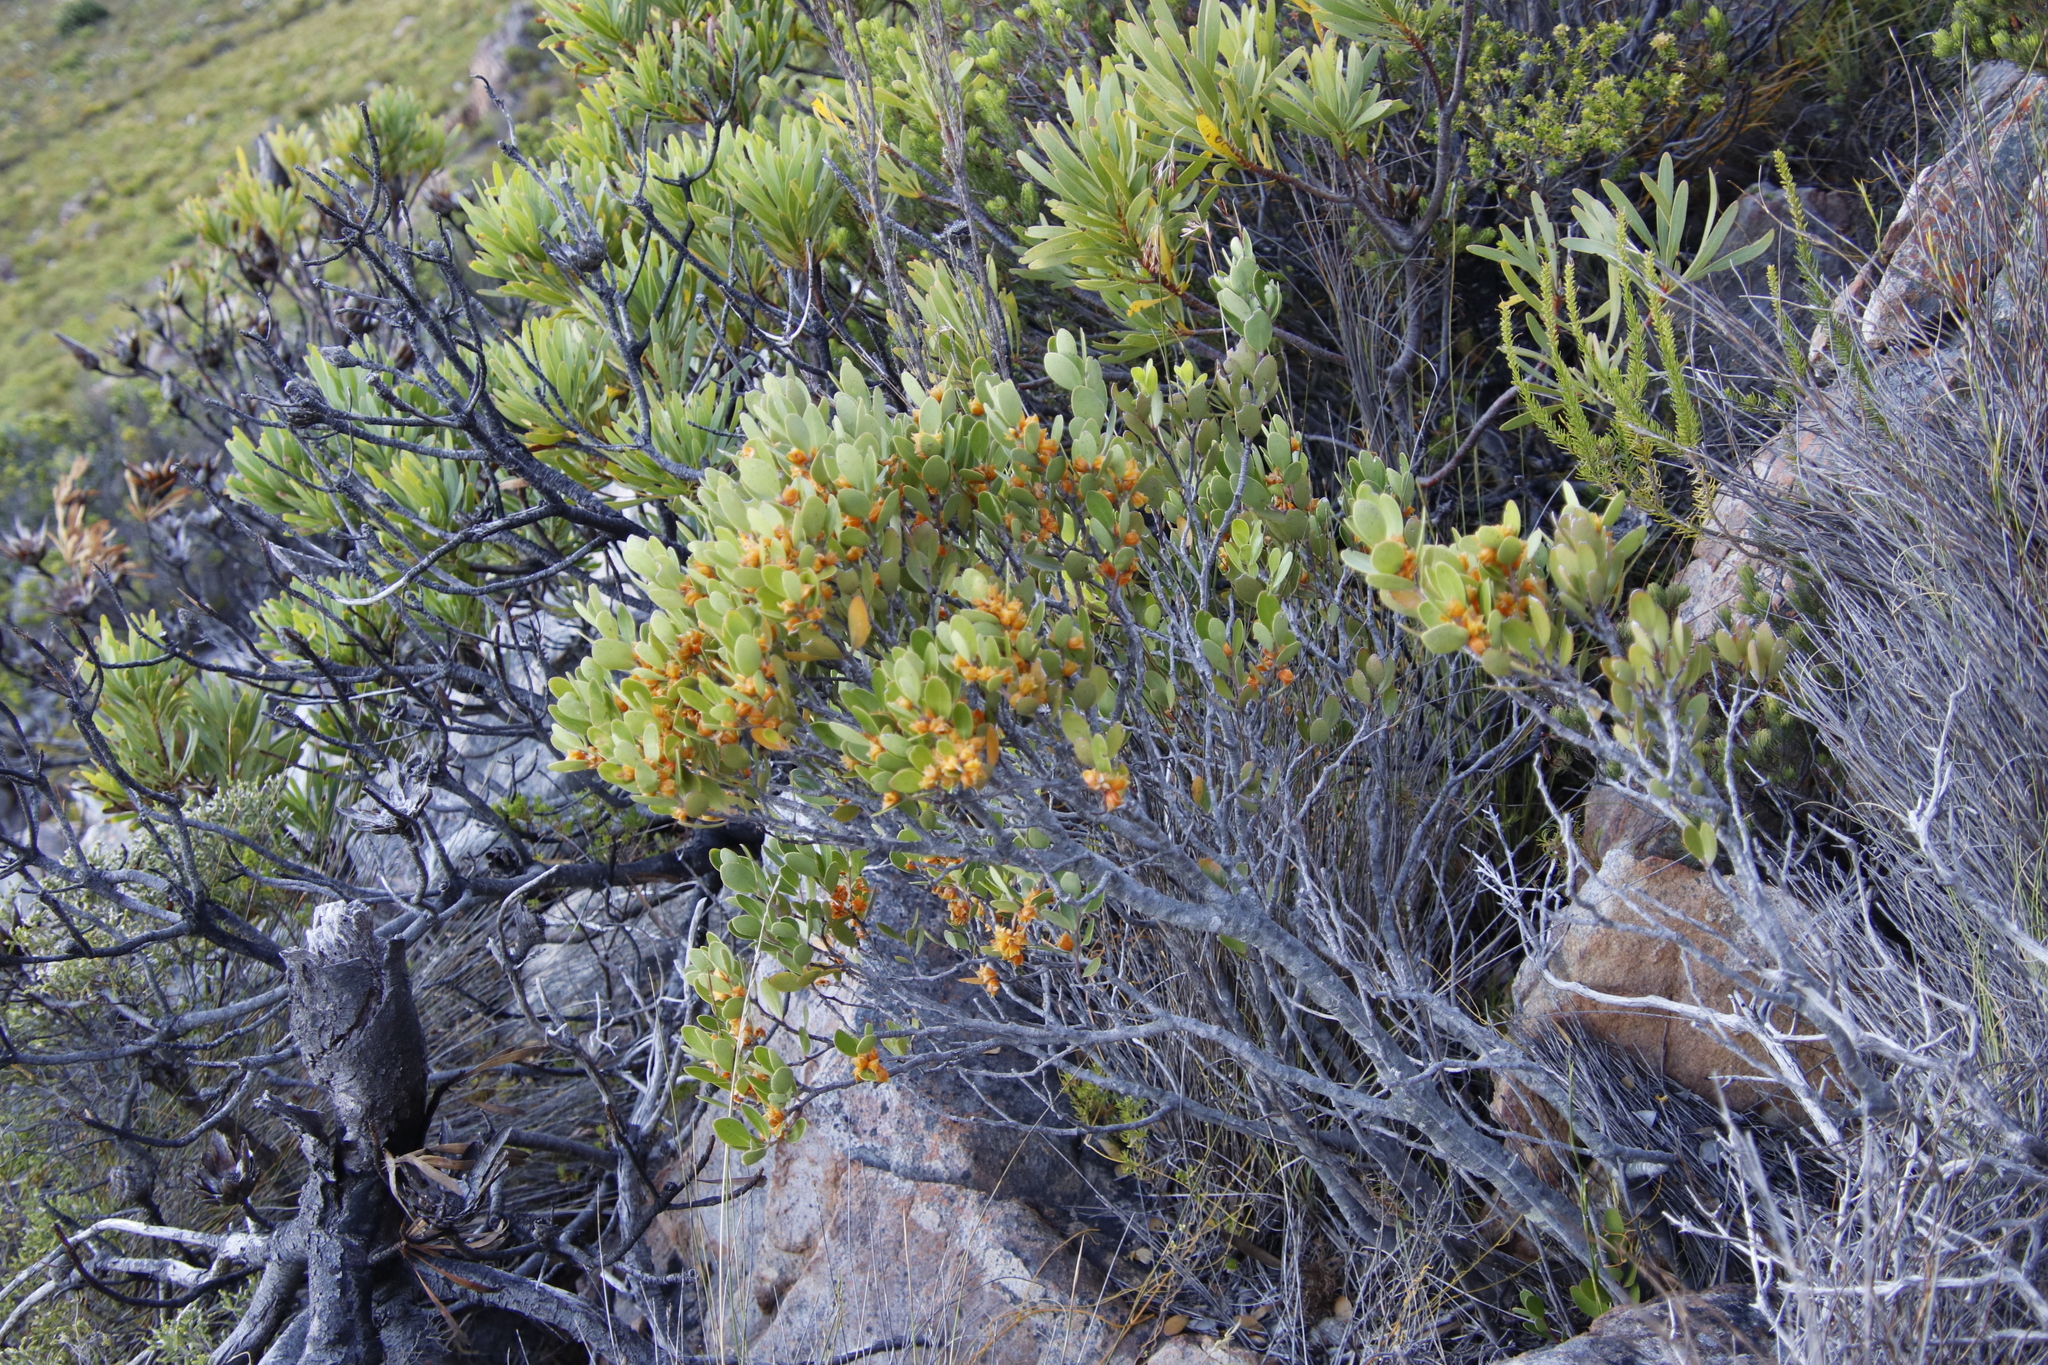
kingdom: Plantae
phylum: Tracheophyta
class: Magnoliopsida
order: Celastrales
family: Celastraceae
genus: Pterocelastrus
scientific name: Pterocelastrus tricuspidatus
